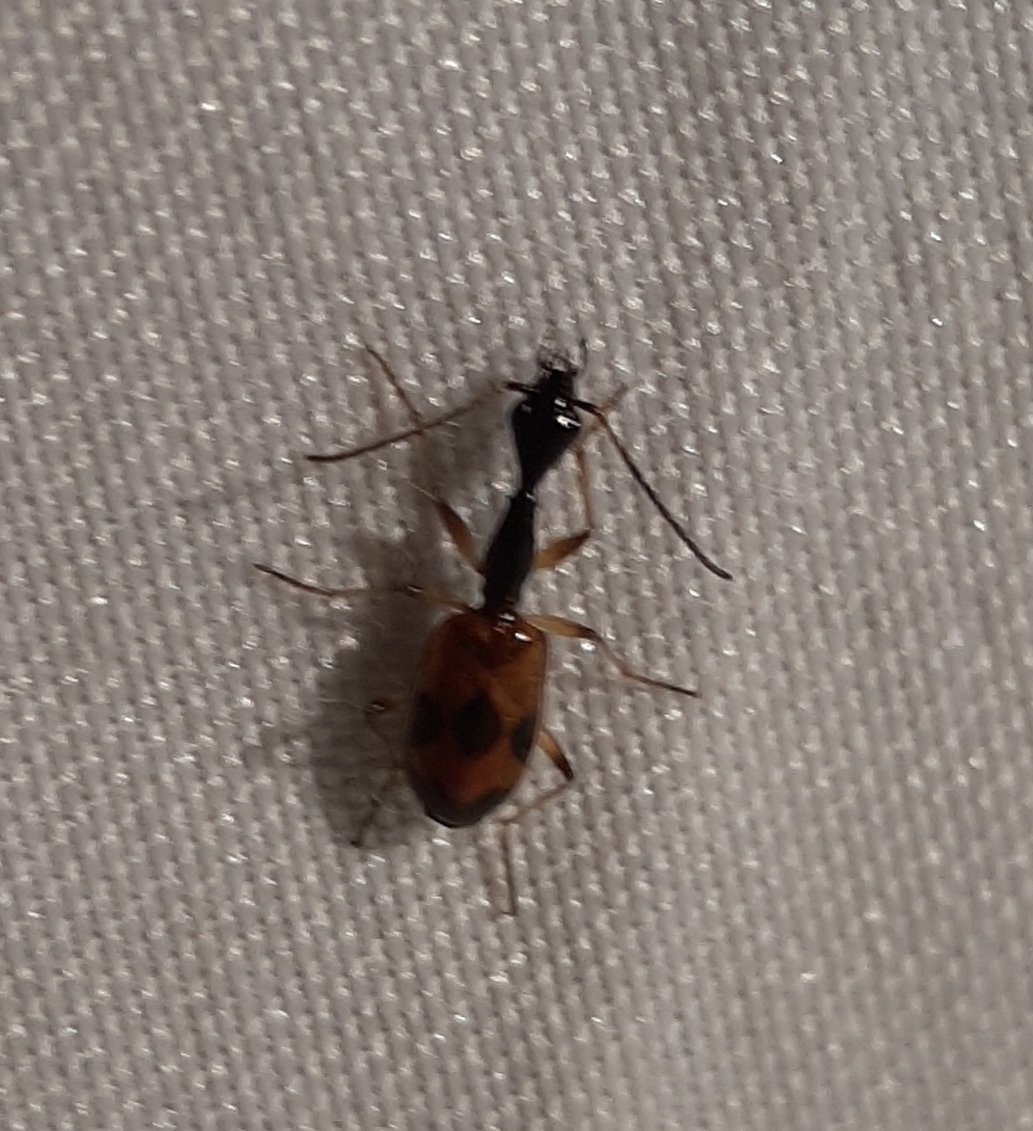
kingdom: Animalia
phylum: Arthropoda
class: Insecta
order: Coleoptera
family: Carabidae
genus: Colliuris
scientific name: Colliuris pensylvanica
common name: Long-necked ground beetle
